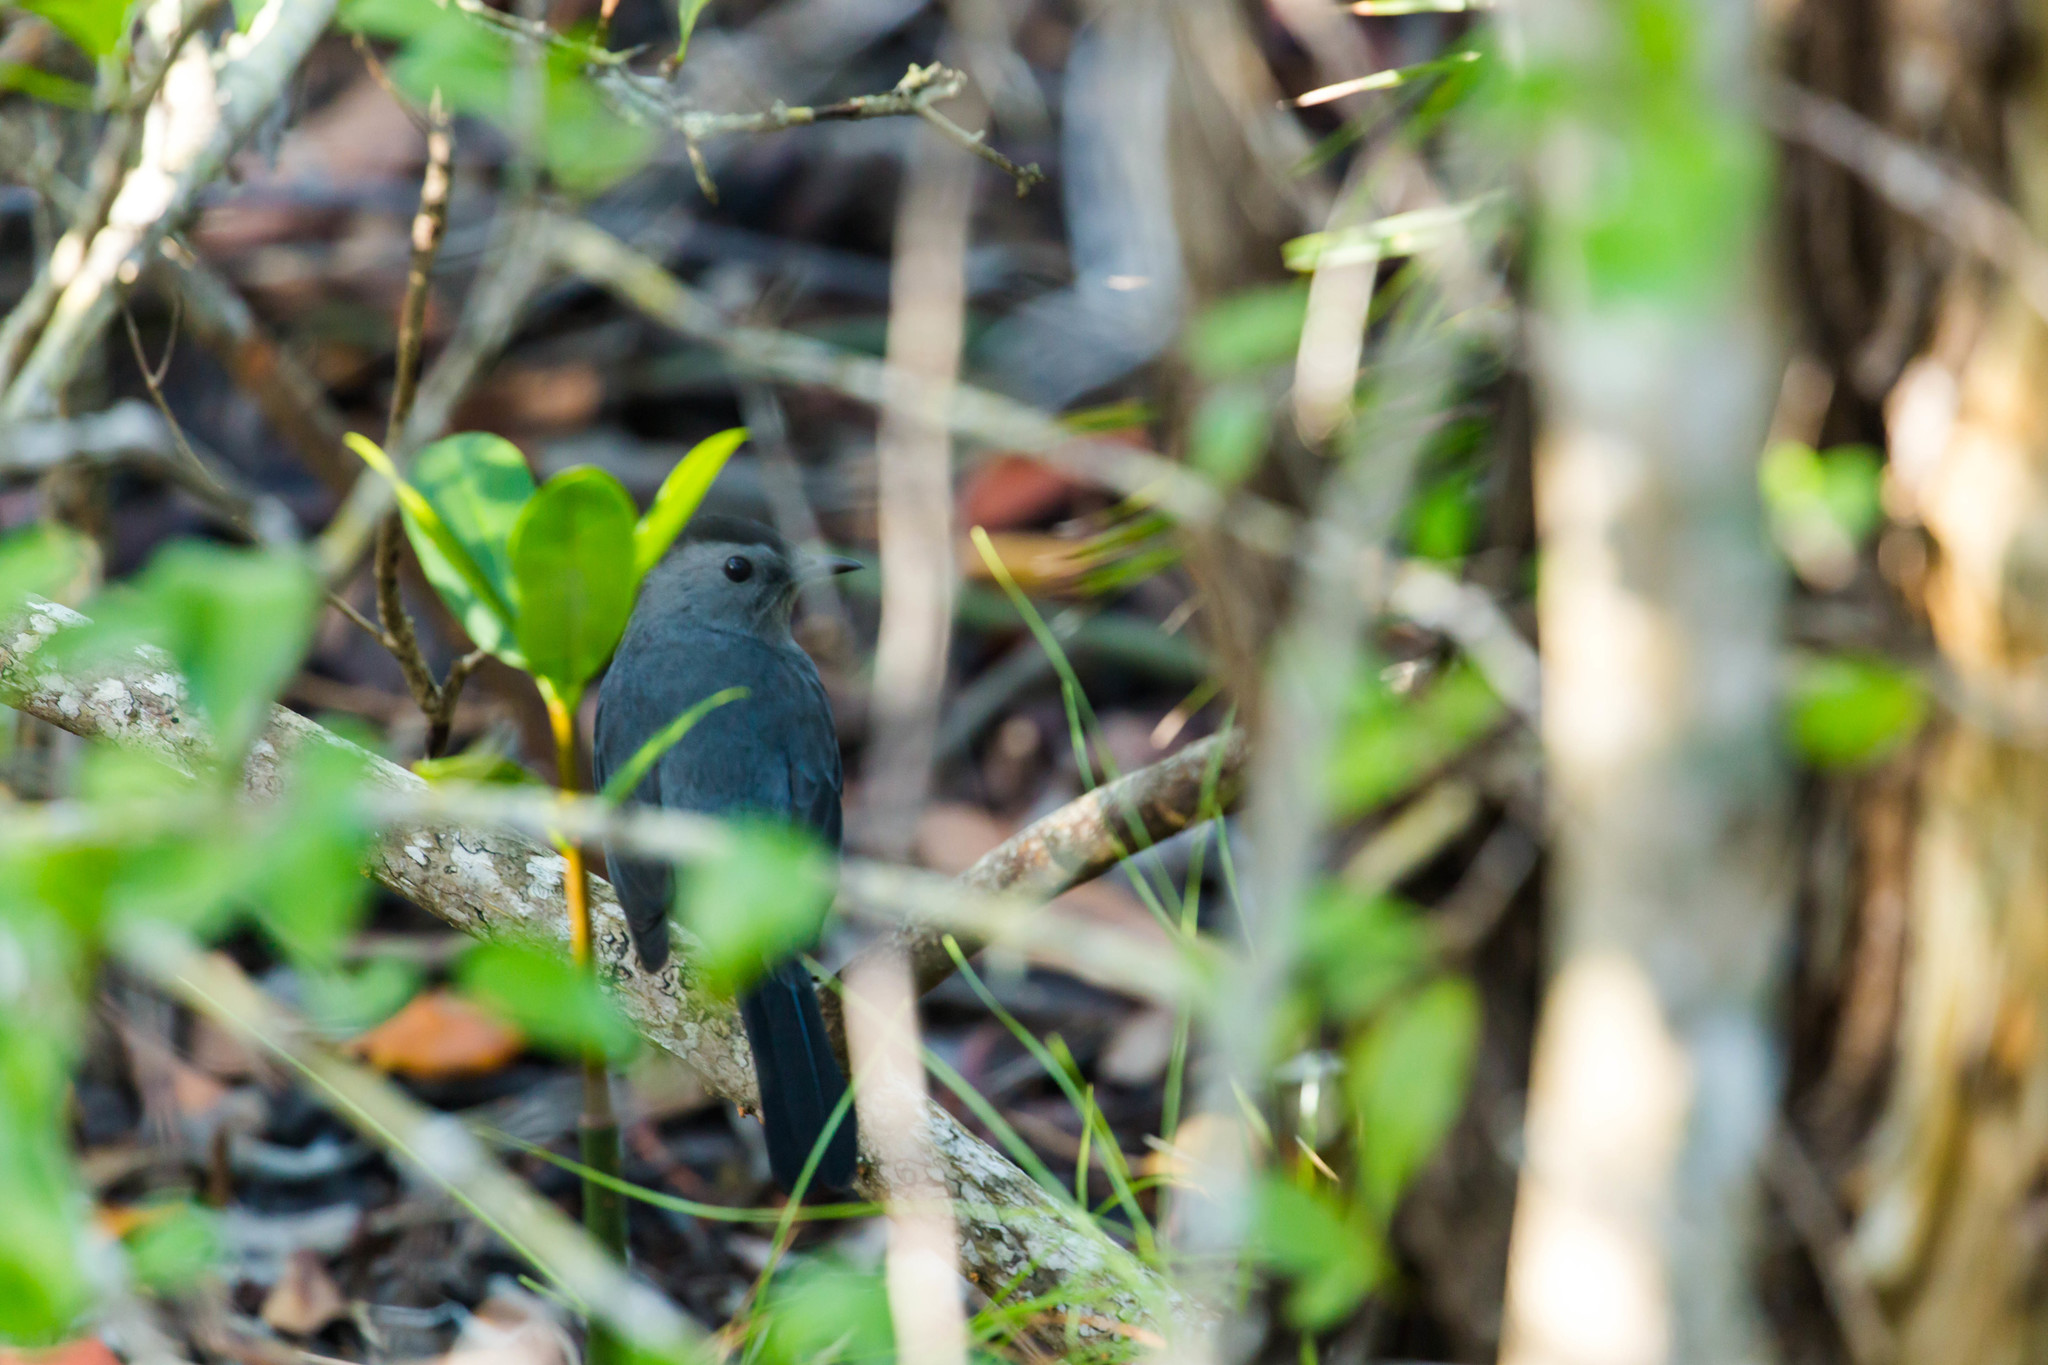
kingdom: Animalia
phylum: Chordata
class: Aves
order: Passeriformes
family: Mimidae
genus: Dumetella
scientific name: Dumetella carolinensis
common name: Gray catbird
